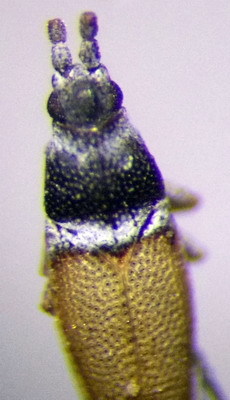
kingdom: Animalia
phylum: Arthropoda
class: Insecta
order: Hemiptera
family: Tingidae
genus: Agramma
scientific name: Agramma minutum
